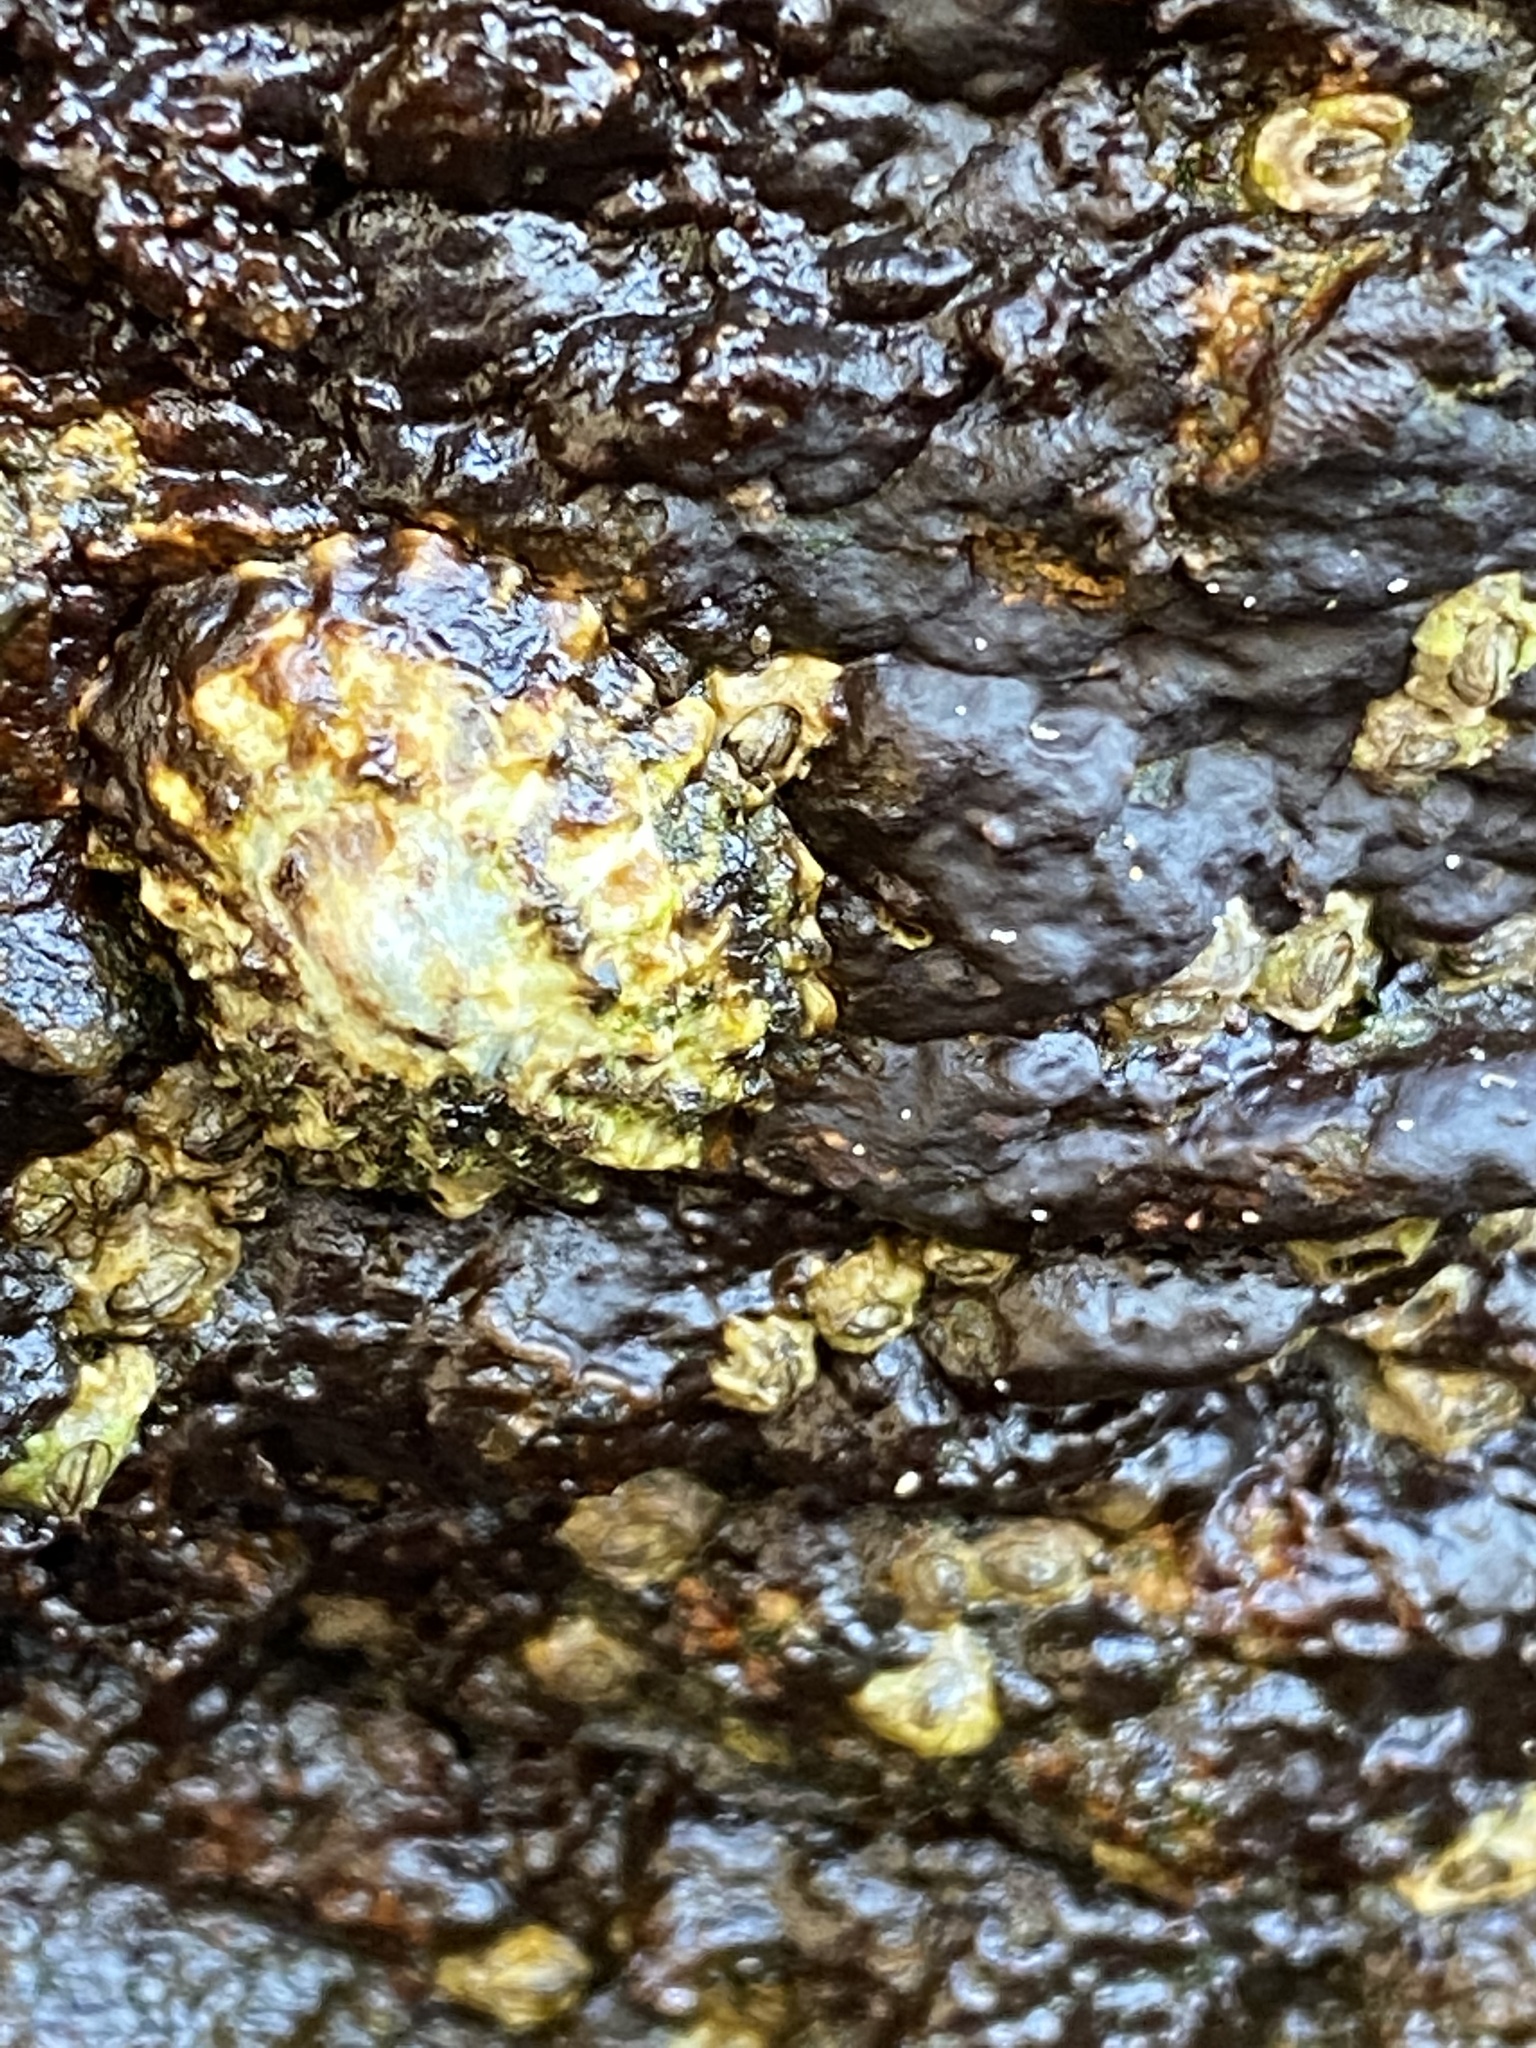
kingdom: Animalia
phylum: Mollusca
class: Gastropoda
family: Lottiidae
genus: Lottia
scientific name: Lottia scabra
